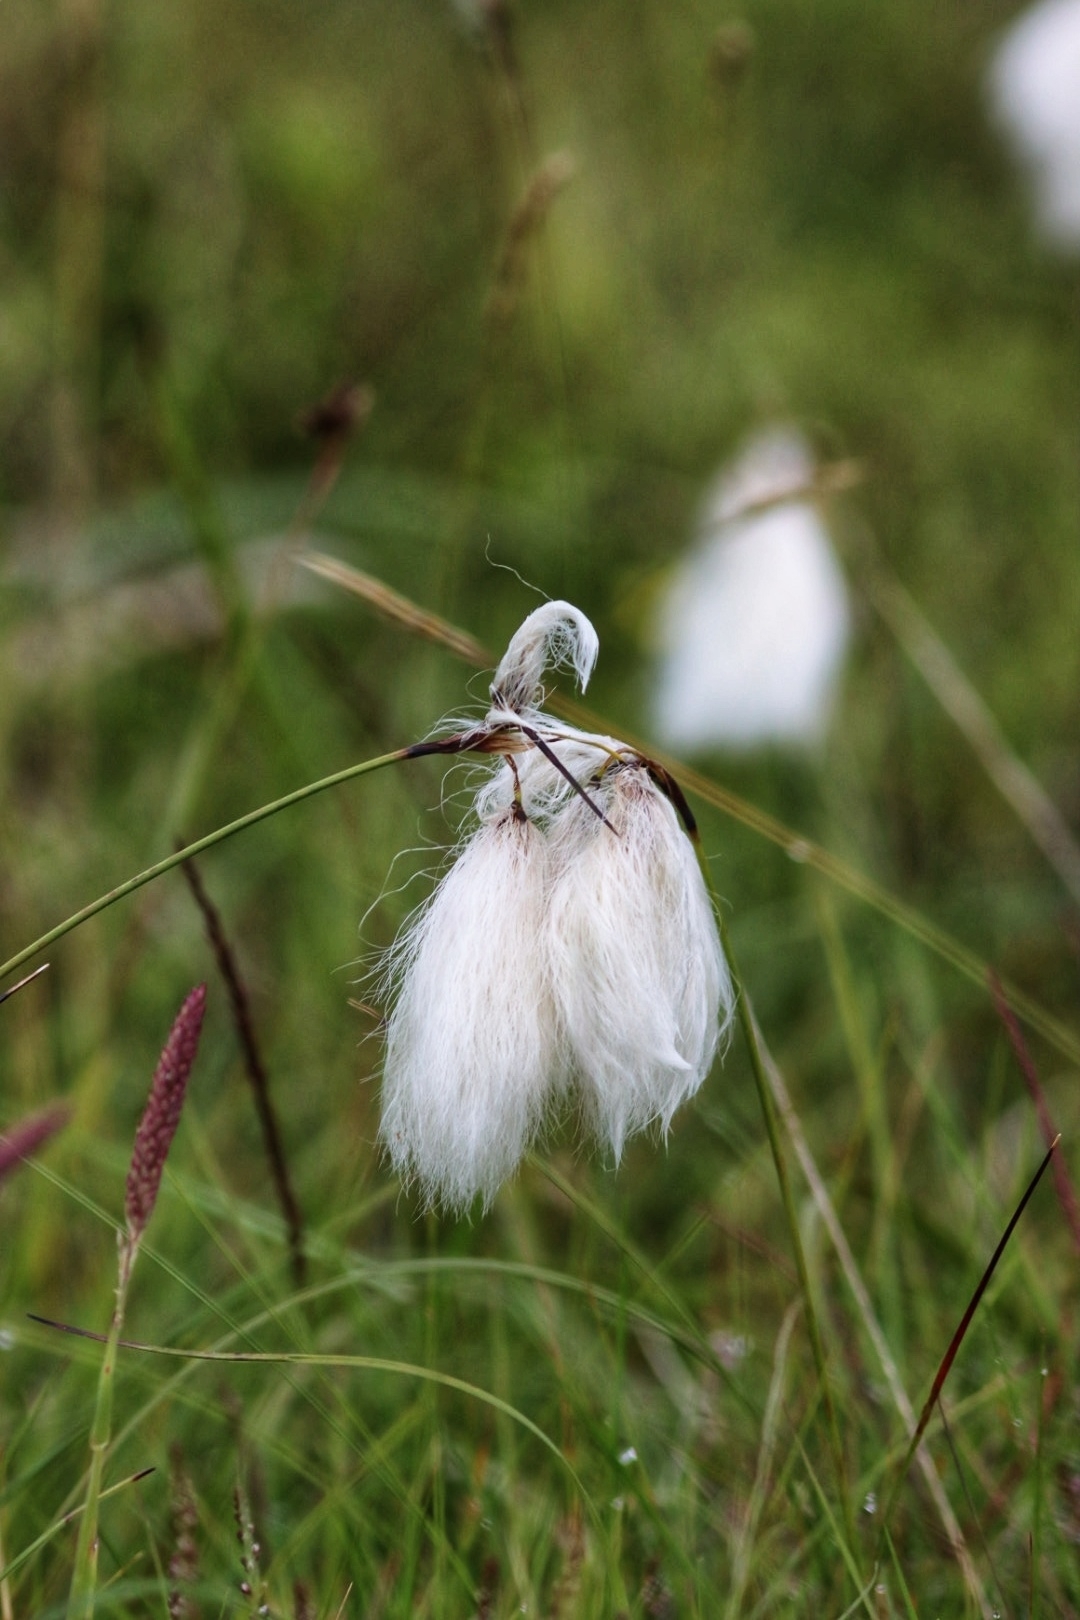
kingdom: Plantae
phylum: Tracheophyta
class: Liliopsida
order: Poales
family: Cyperaceae
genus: Eriophorum
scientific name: Eriophorum angustifolium
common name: Common cottongrass
